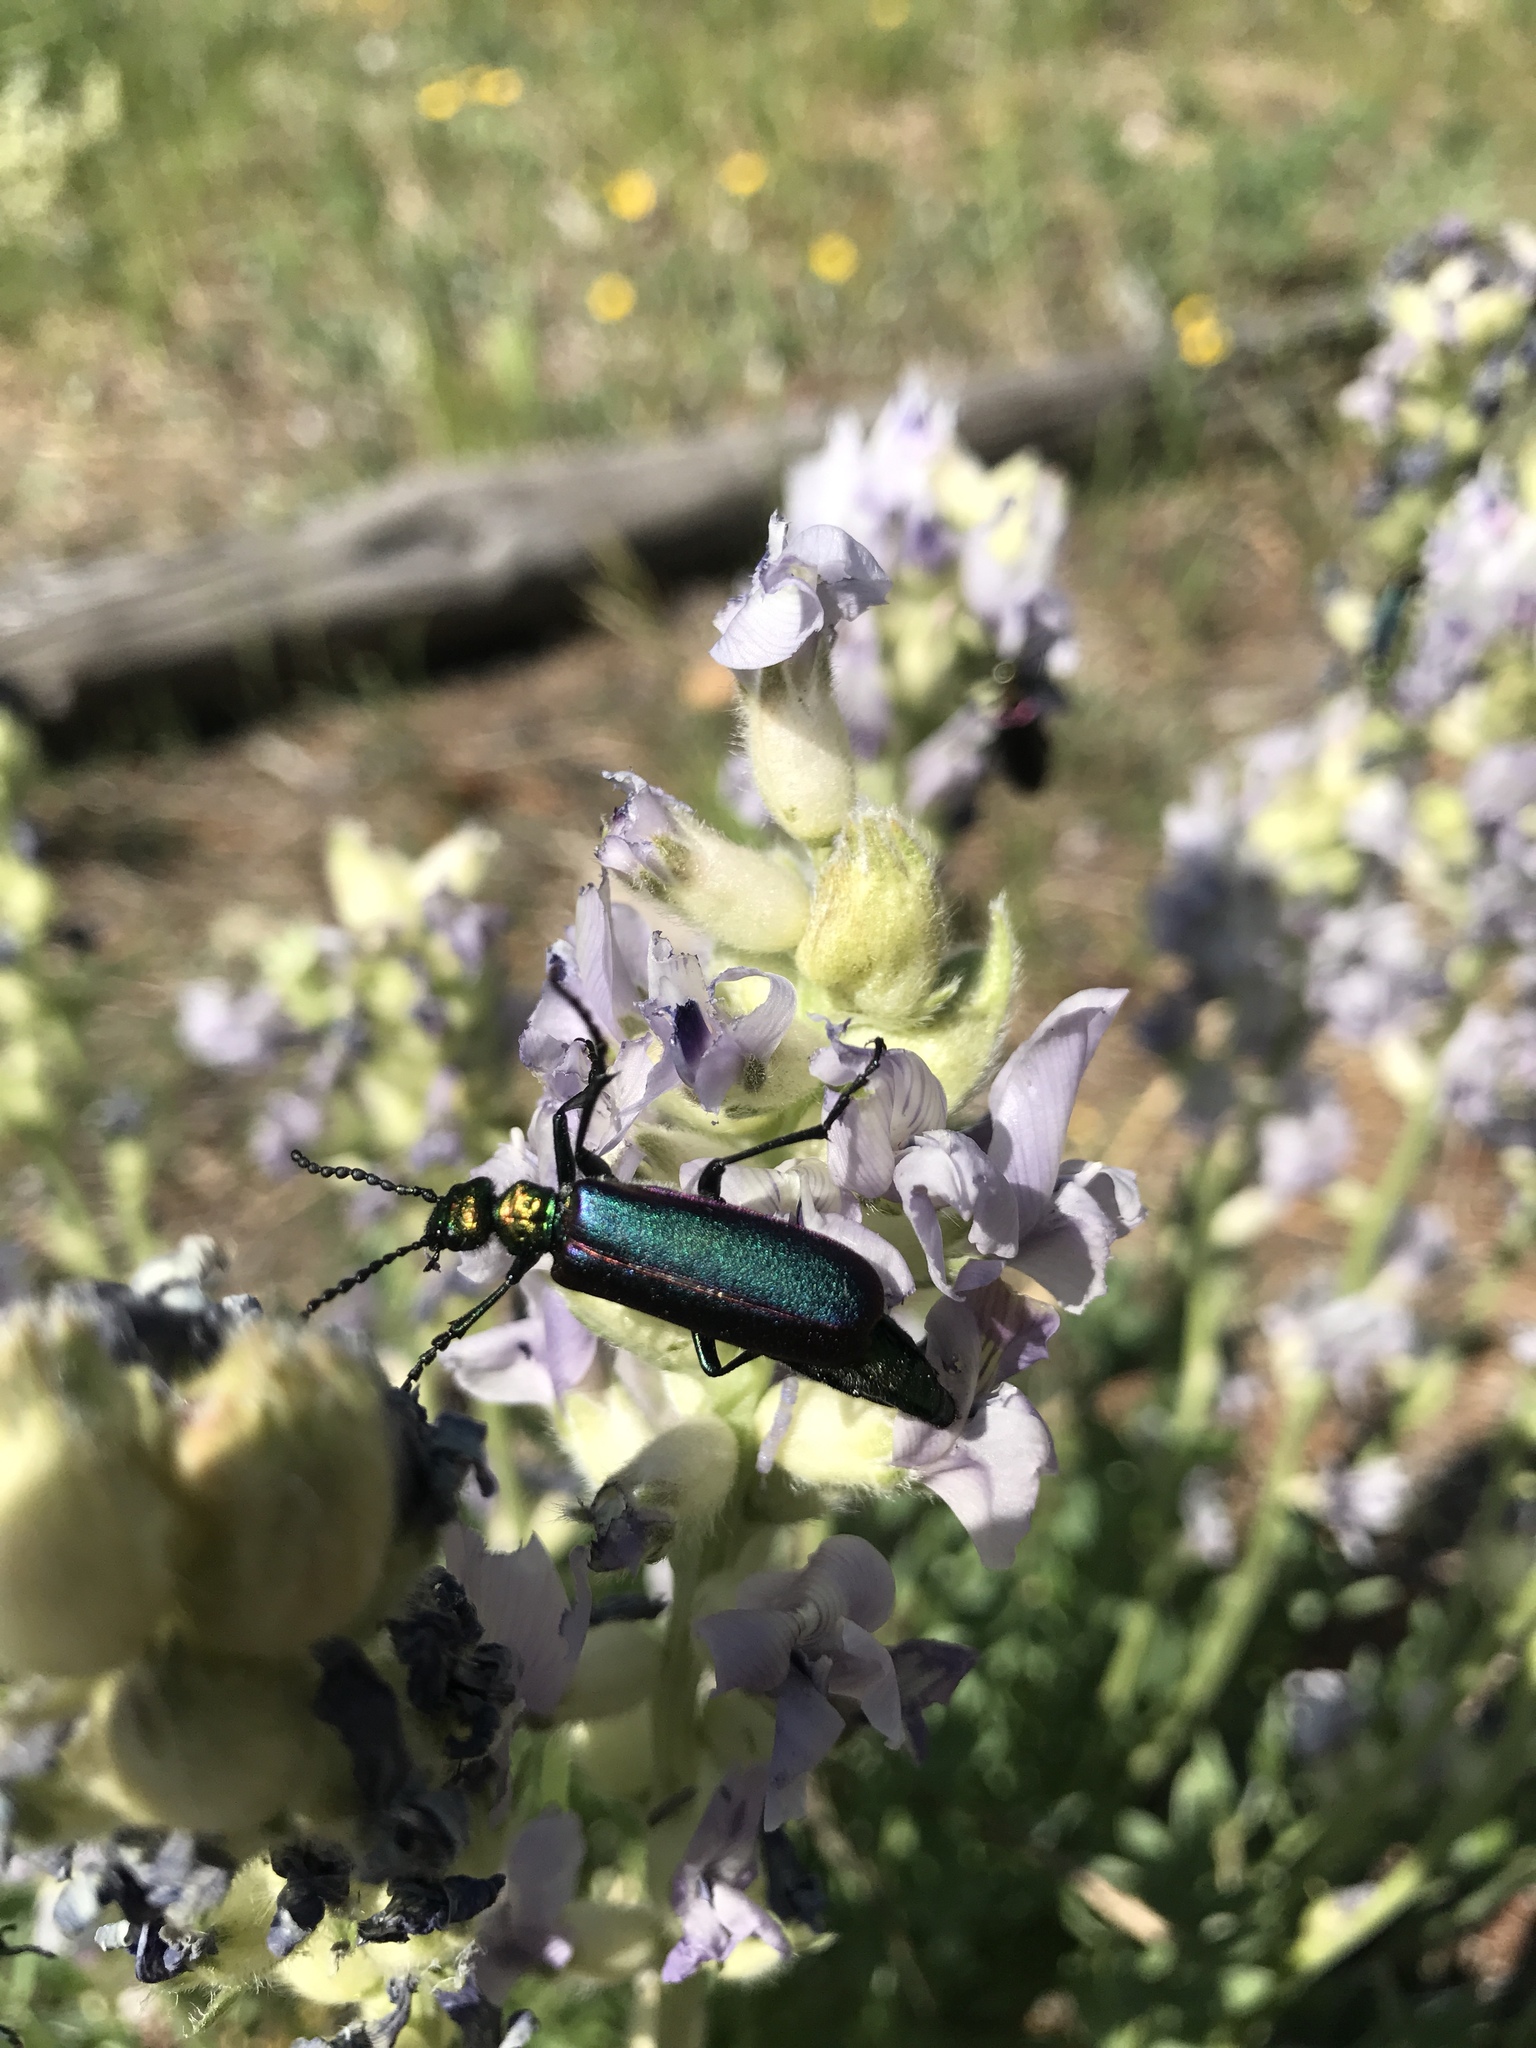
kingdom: Animalia
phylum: Arthropoda
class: Insecta
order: Coleoptera
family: Meloidae
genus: Lytta
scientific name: Lytta nuttallii
